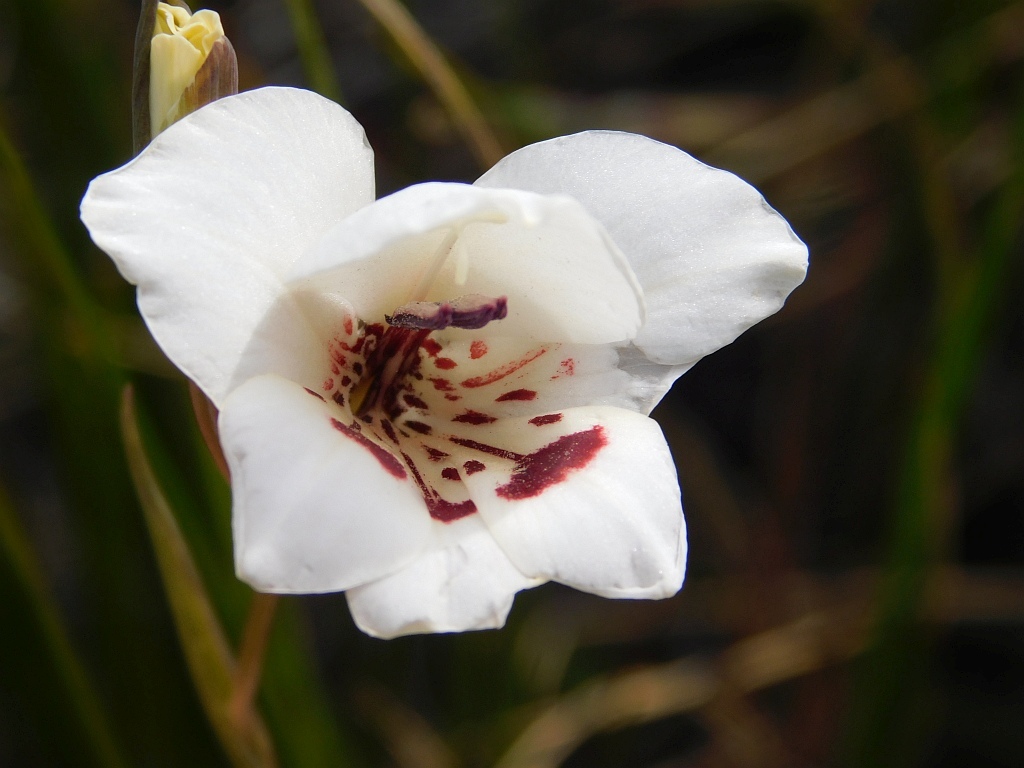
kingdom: Plantae
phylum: Tracheophyta
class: Liliopsida
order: Asparagales
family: Iridaceae
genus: Gladiolus
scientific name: Gladiolus debilis
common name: Painted-lady
